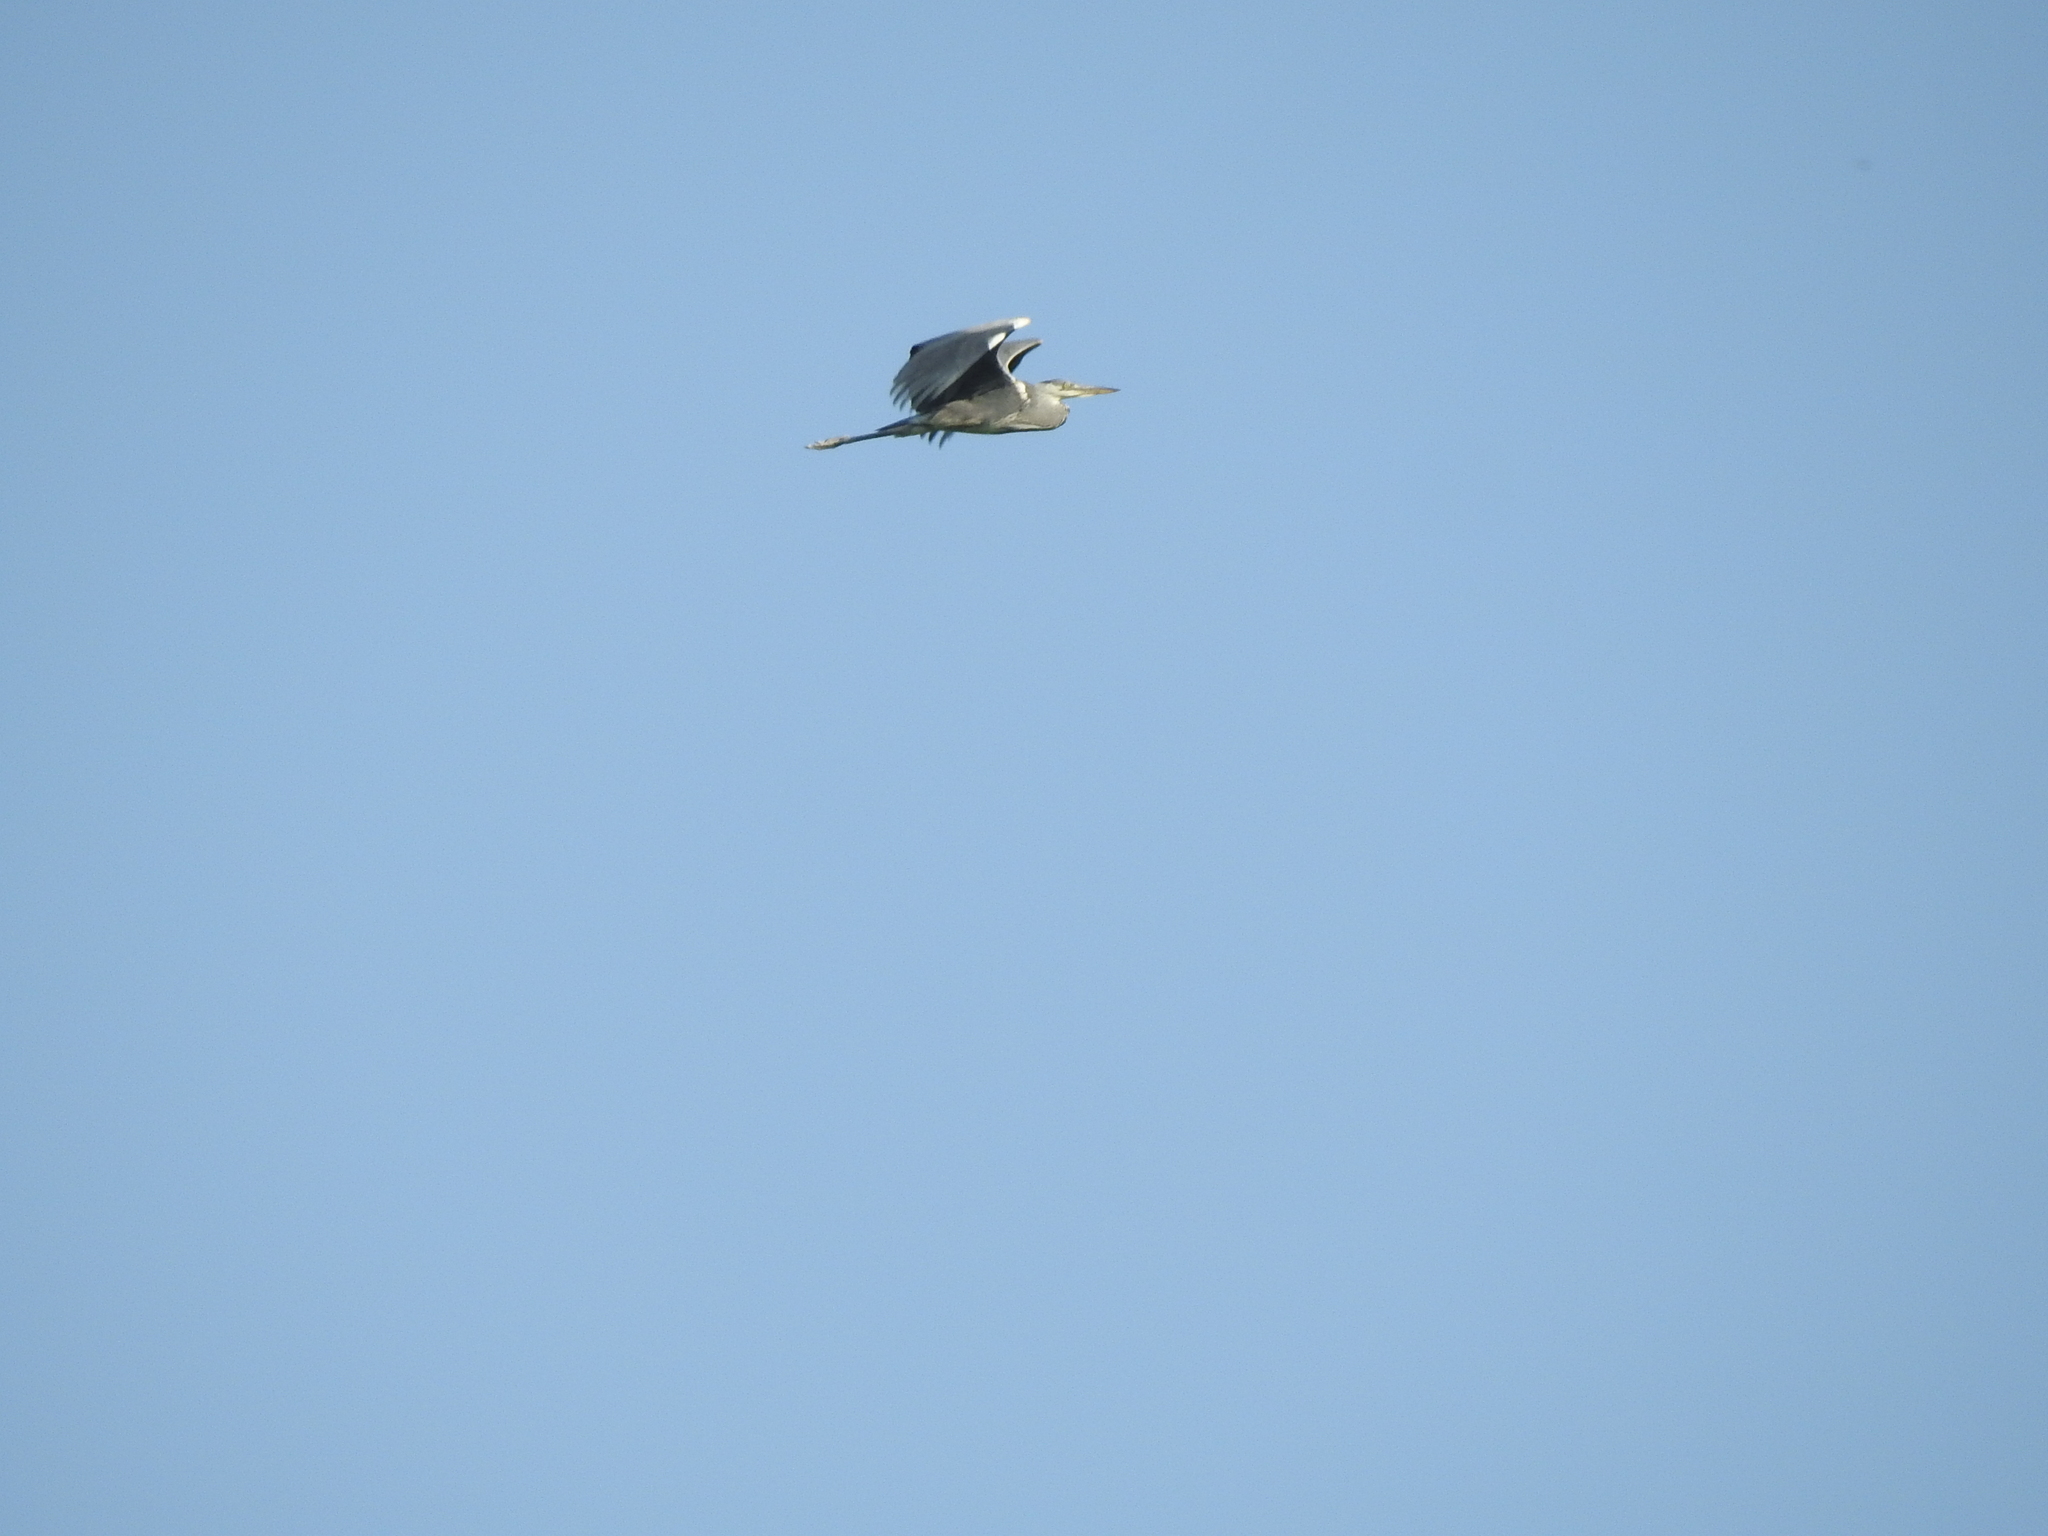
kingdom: Animalia
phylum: Chordata
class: Aves
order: Pelecaniformes
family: Ardeidae
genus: Ardea
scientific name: Ardea cinerea
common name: Grey heron
